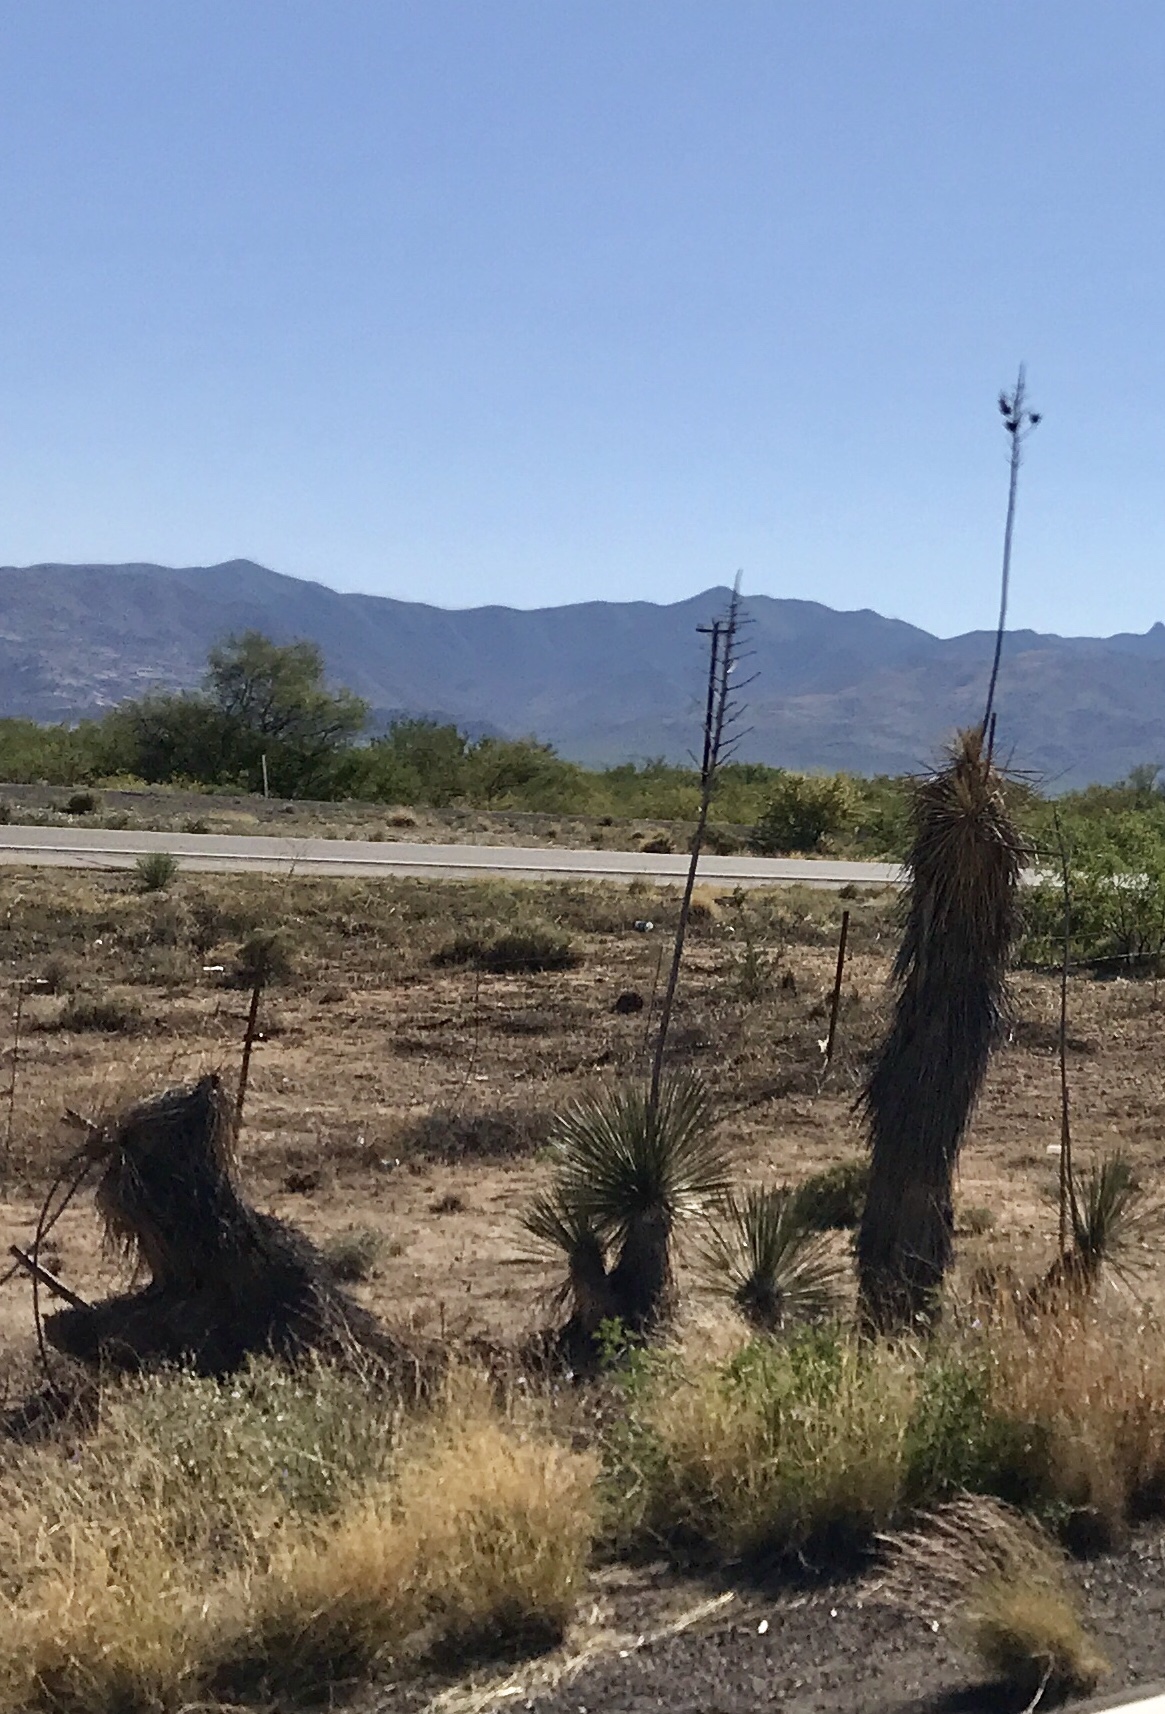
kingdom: Plantae
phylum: Tracheophyta
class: Liliopsida
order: Asparagales
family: Asparagaceae
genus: Yucca
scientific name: Yucca elata
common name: Palmella
